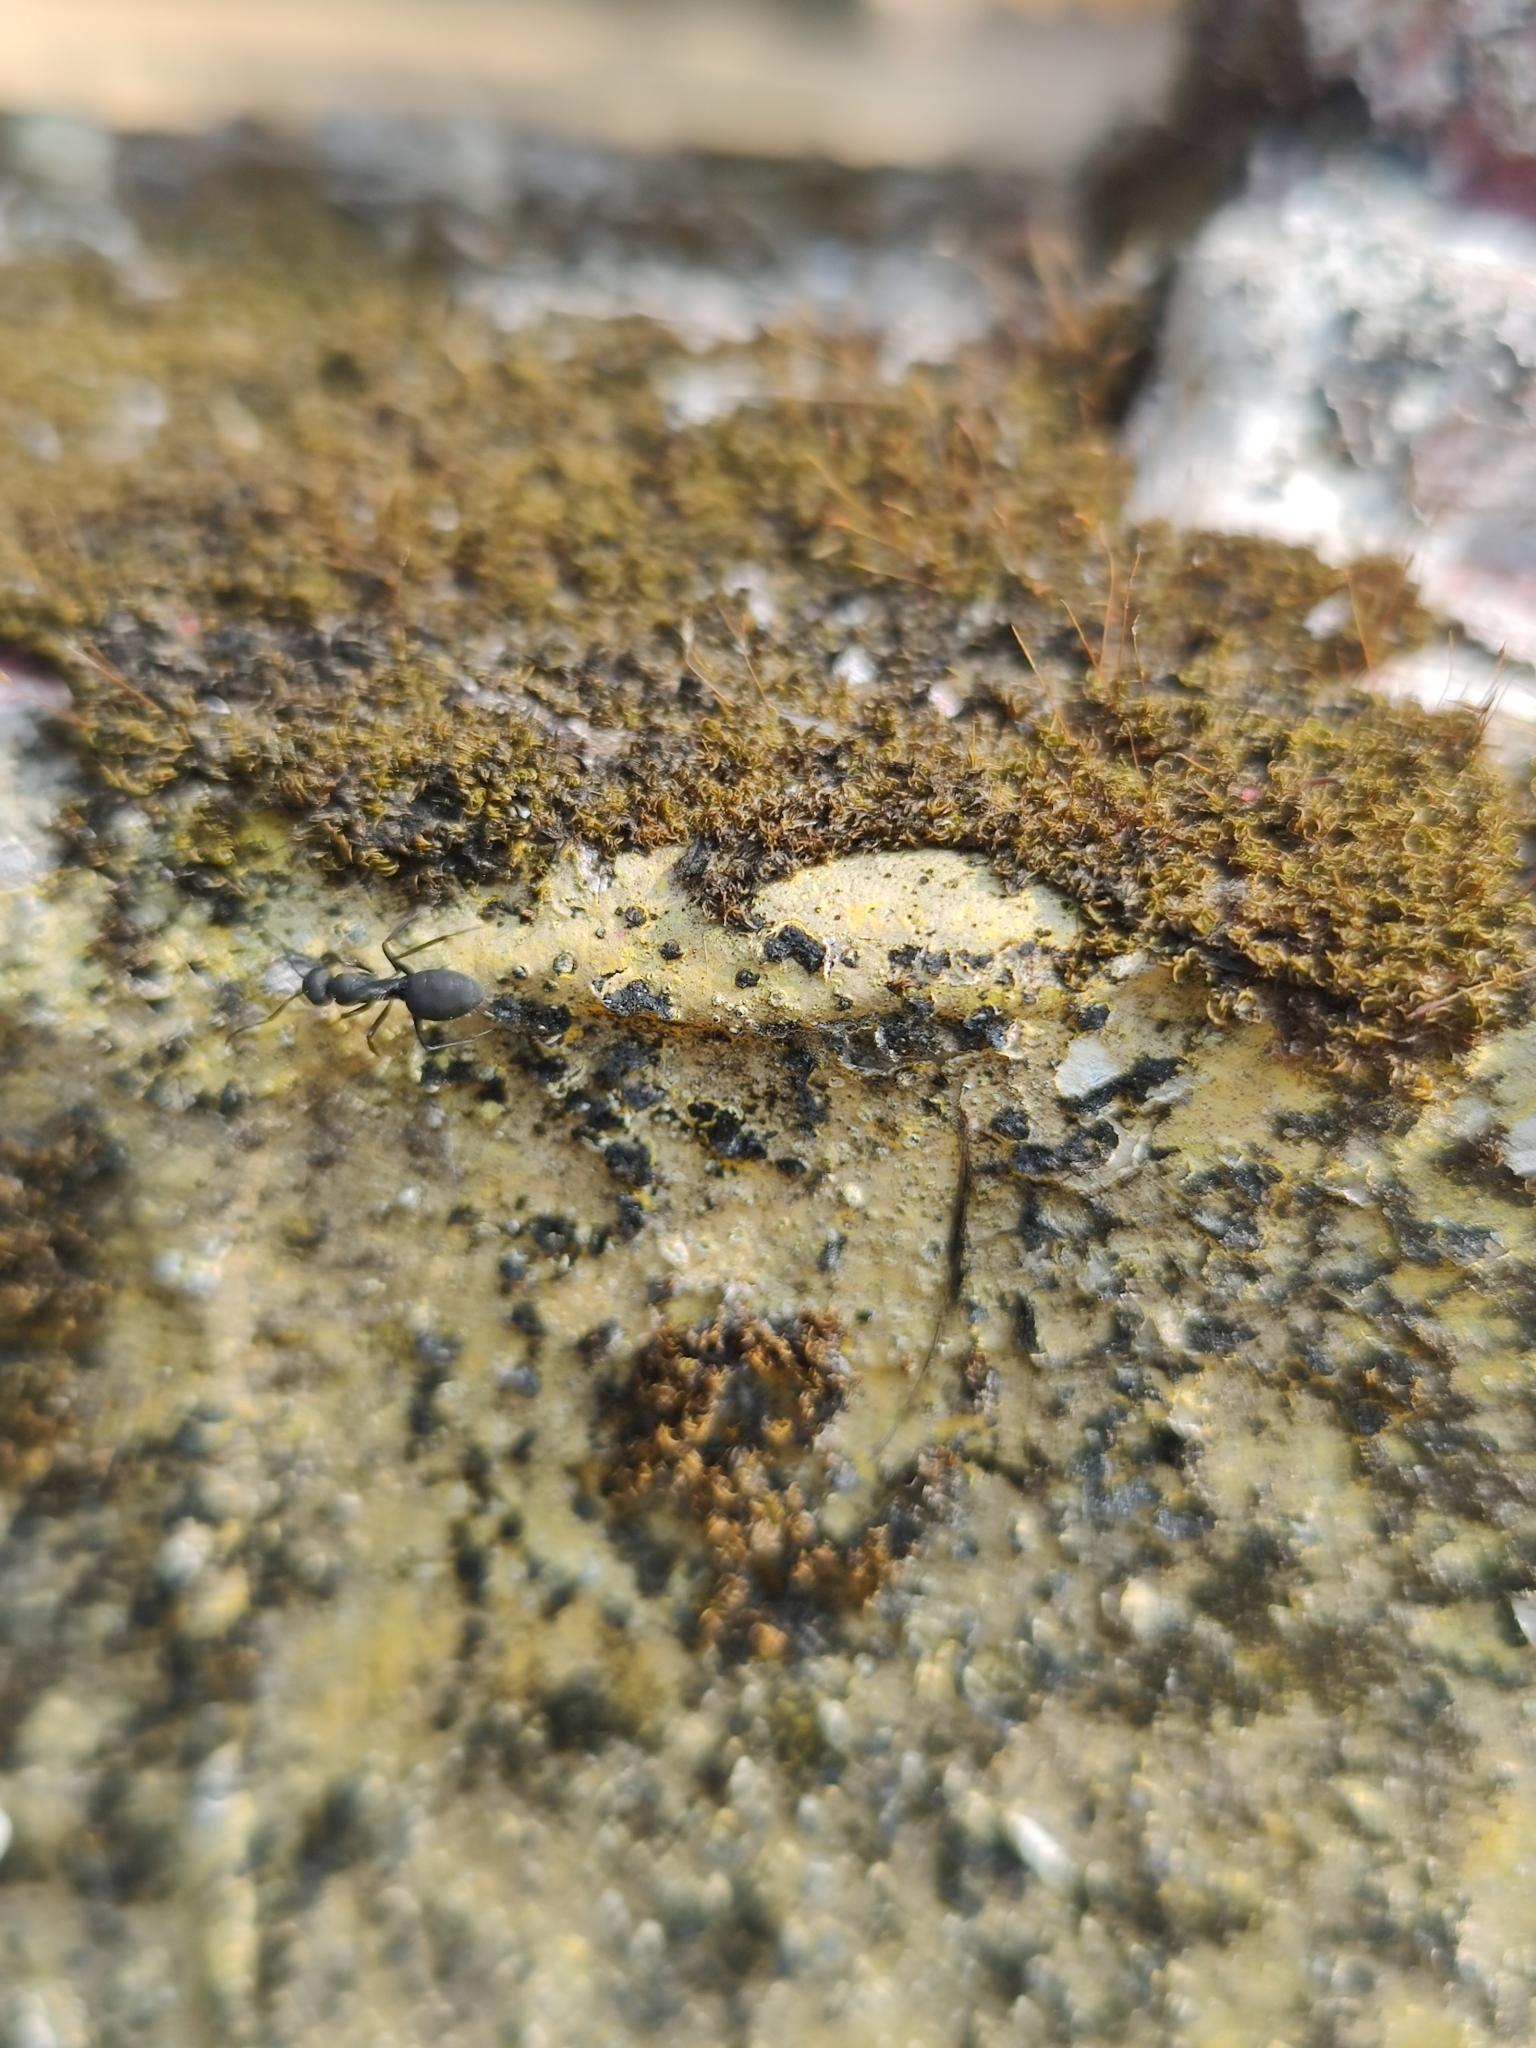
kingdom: Animalia
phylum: Arthropoda
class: Insecta
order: Hymenoptera
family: Formicidae
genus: Camponotus
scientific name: Camponotus radiatus
